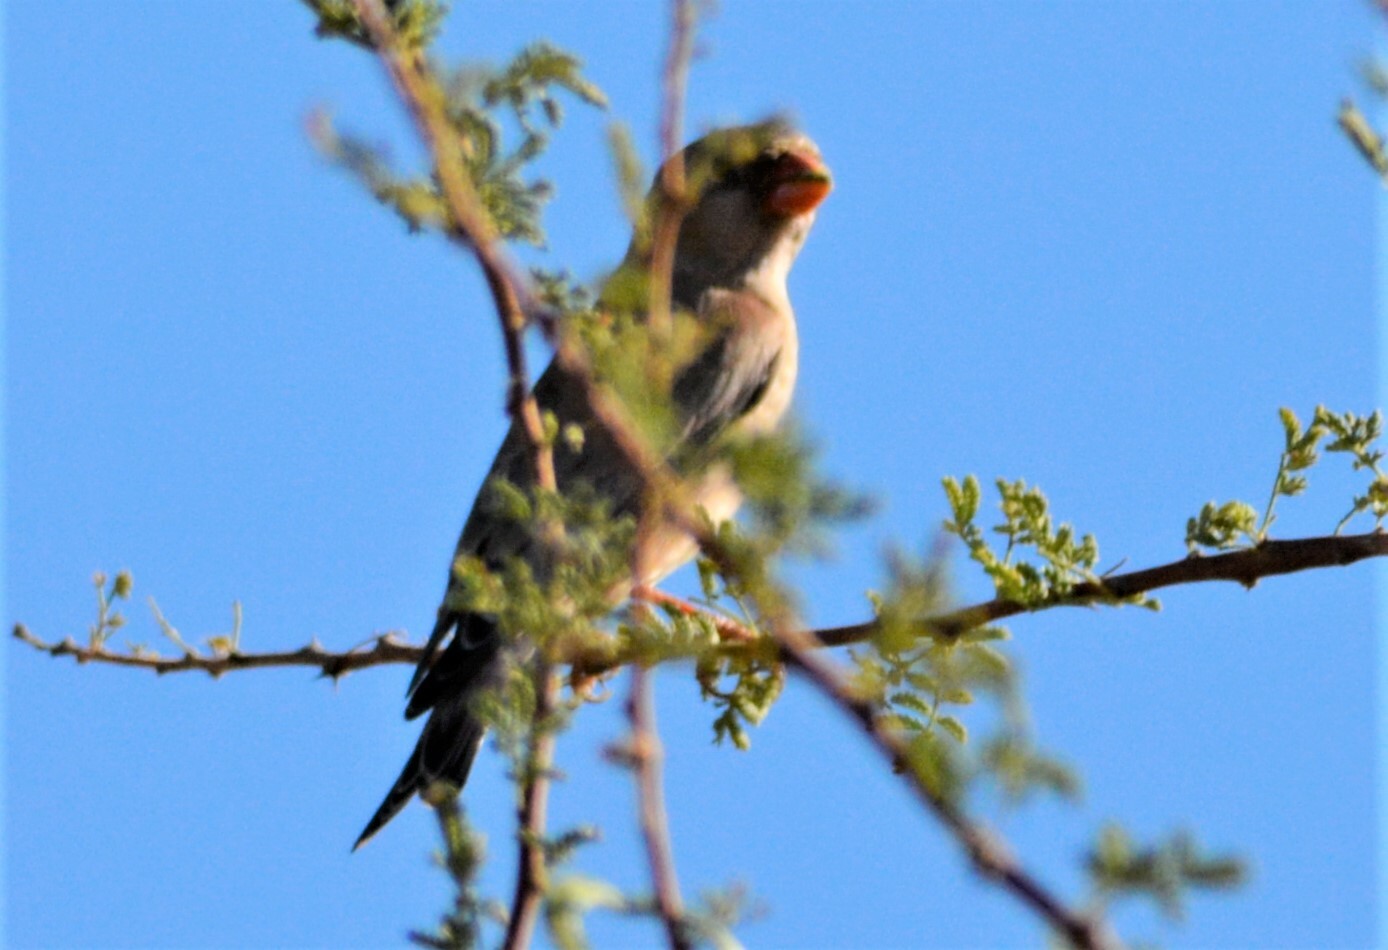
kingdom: Animalia
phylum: Chordata
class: Aves
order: Passeriformes
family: Passeridae
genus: Passer
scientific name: Passer simplex
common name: Desert sparrow
